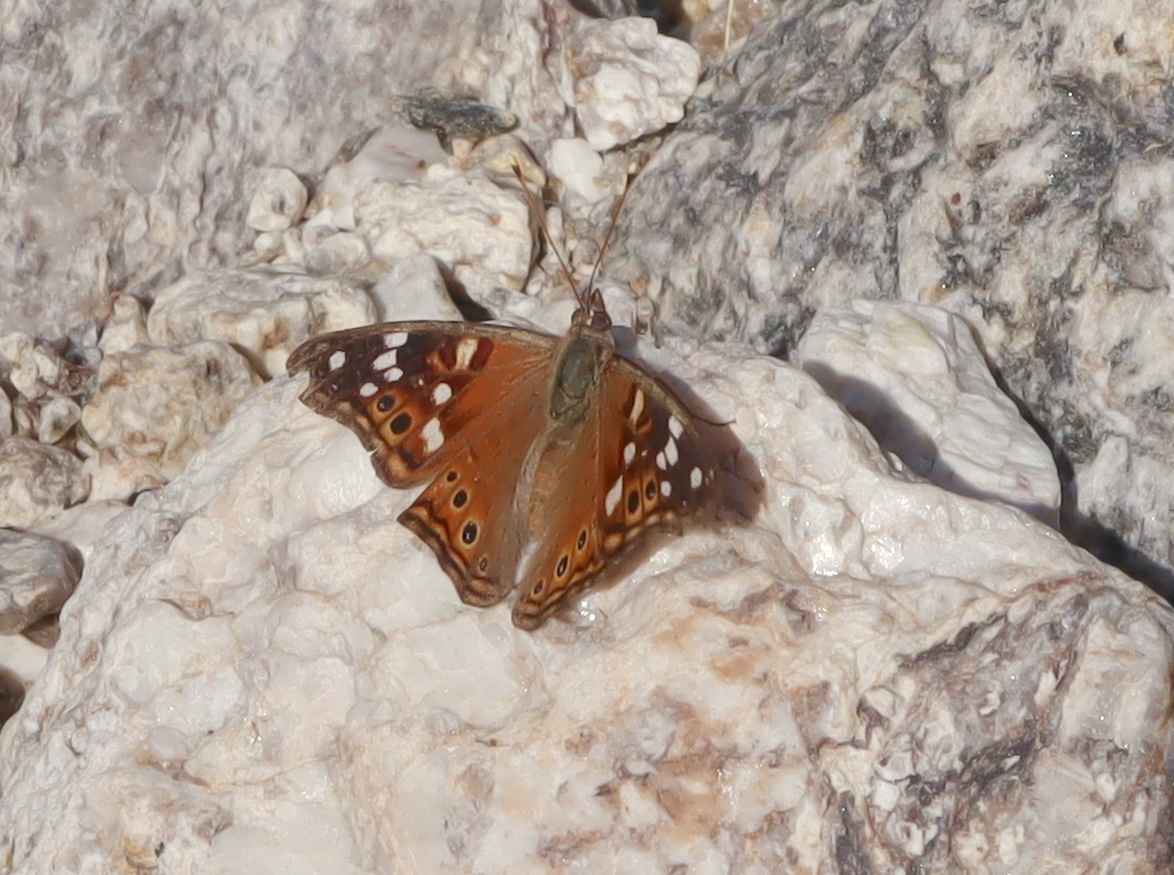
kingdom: Animalia
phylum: Arthropoda
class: Insecta
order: Lepidoptera
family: Nymphalidae
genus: Asterocampa
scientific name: Asterocampa leilia
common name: Empress leilia
